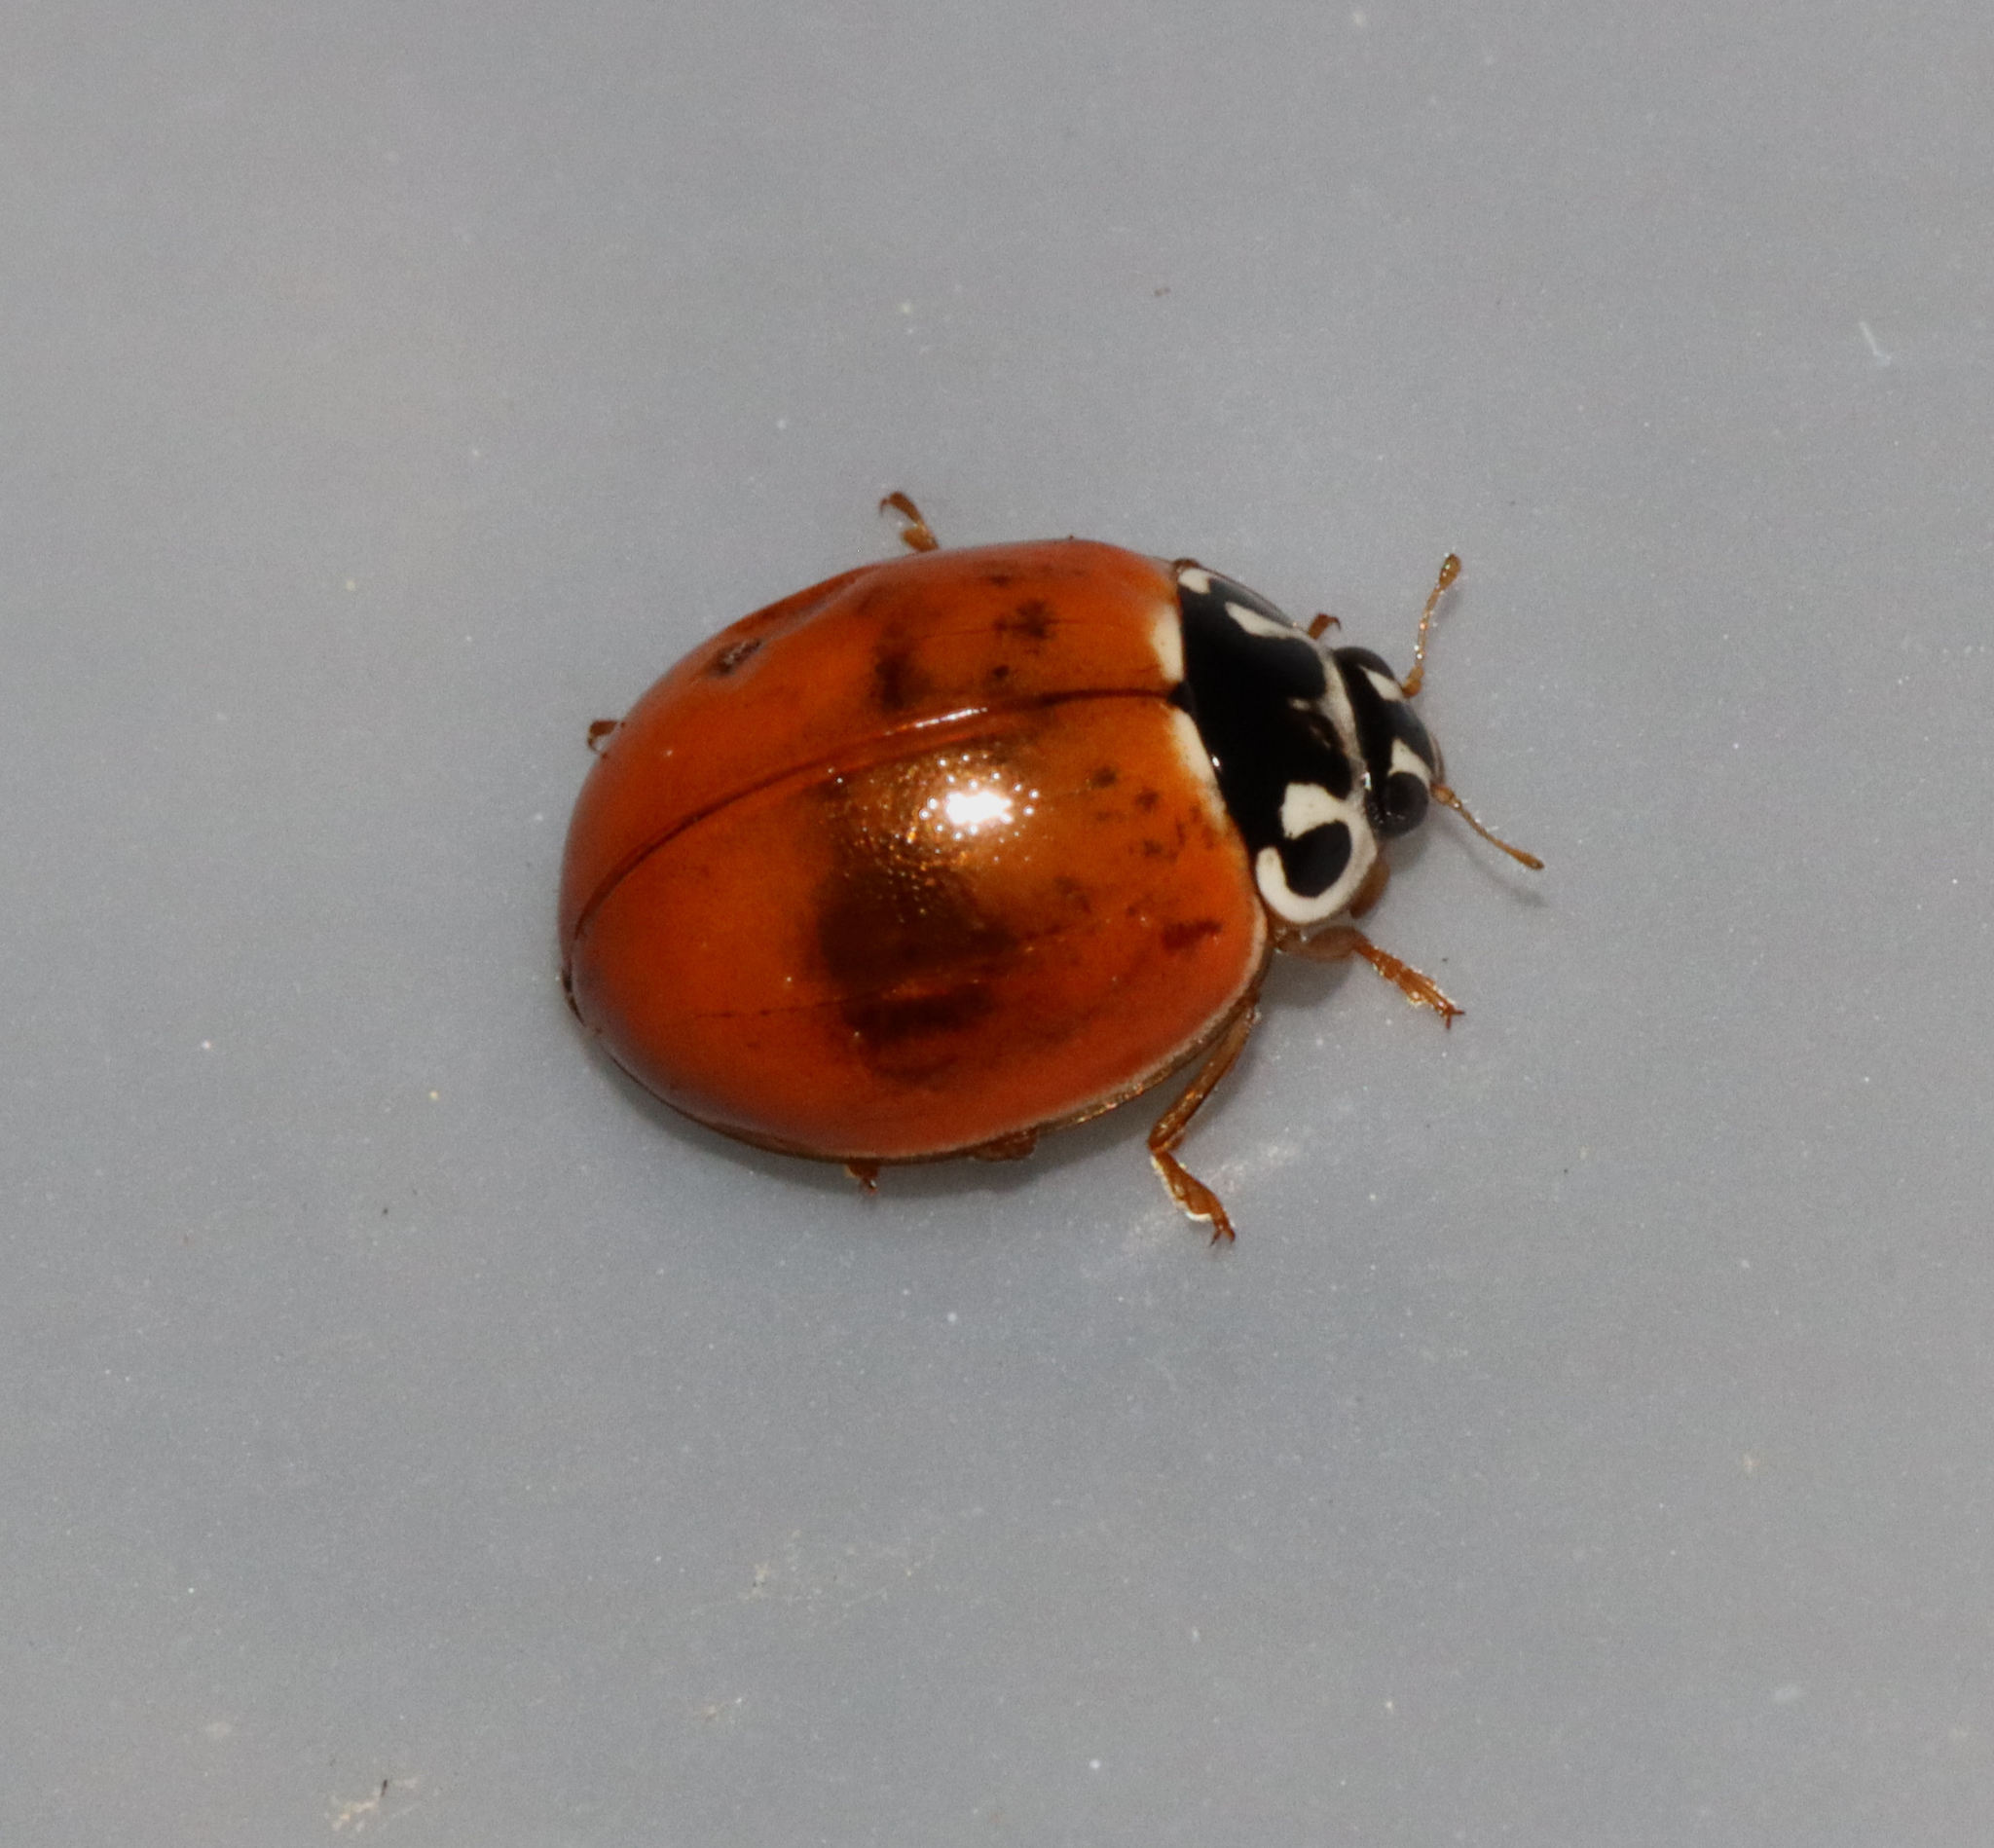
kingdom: Animalia
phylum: Arthropoda
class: Insecta
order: Coleoptera
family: Coccinellidae
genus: Cycloneda
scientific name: Cycloneda munda
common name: Polished lady beetle
